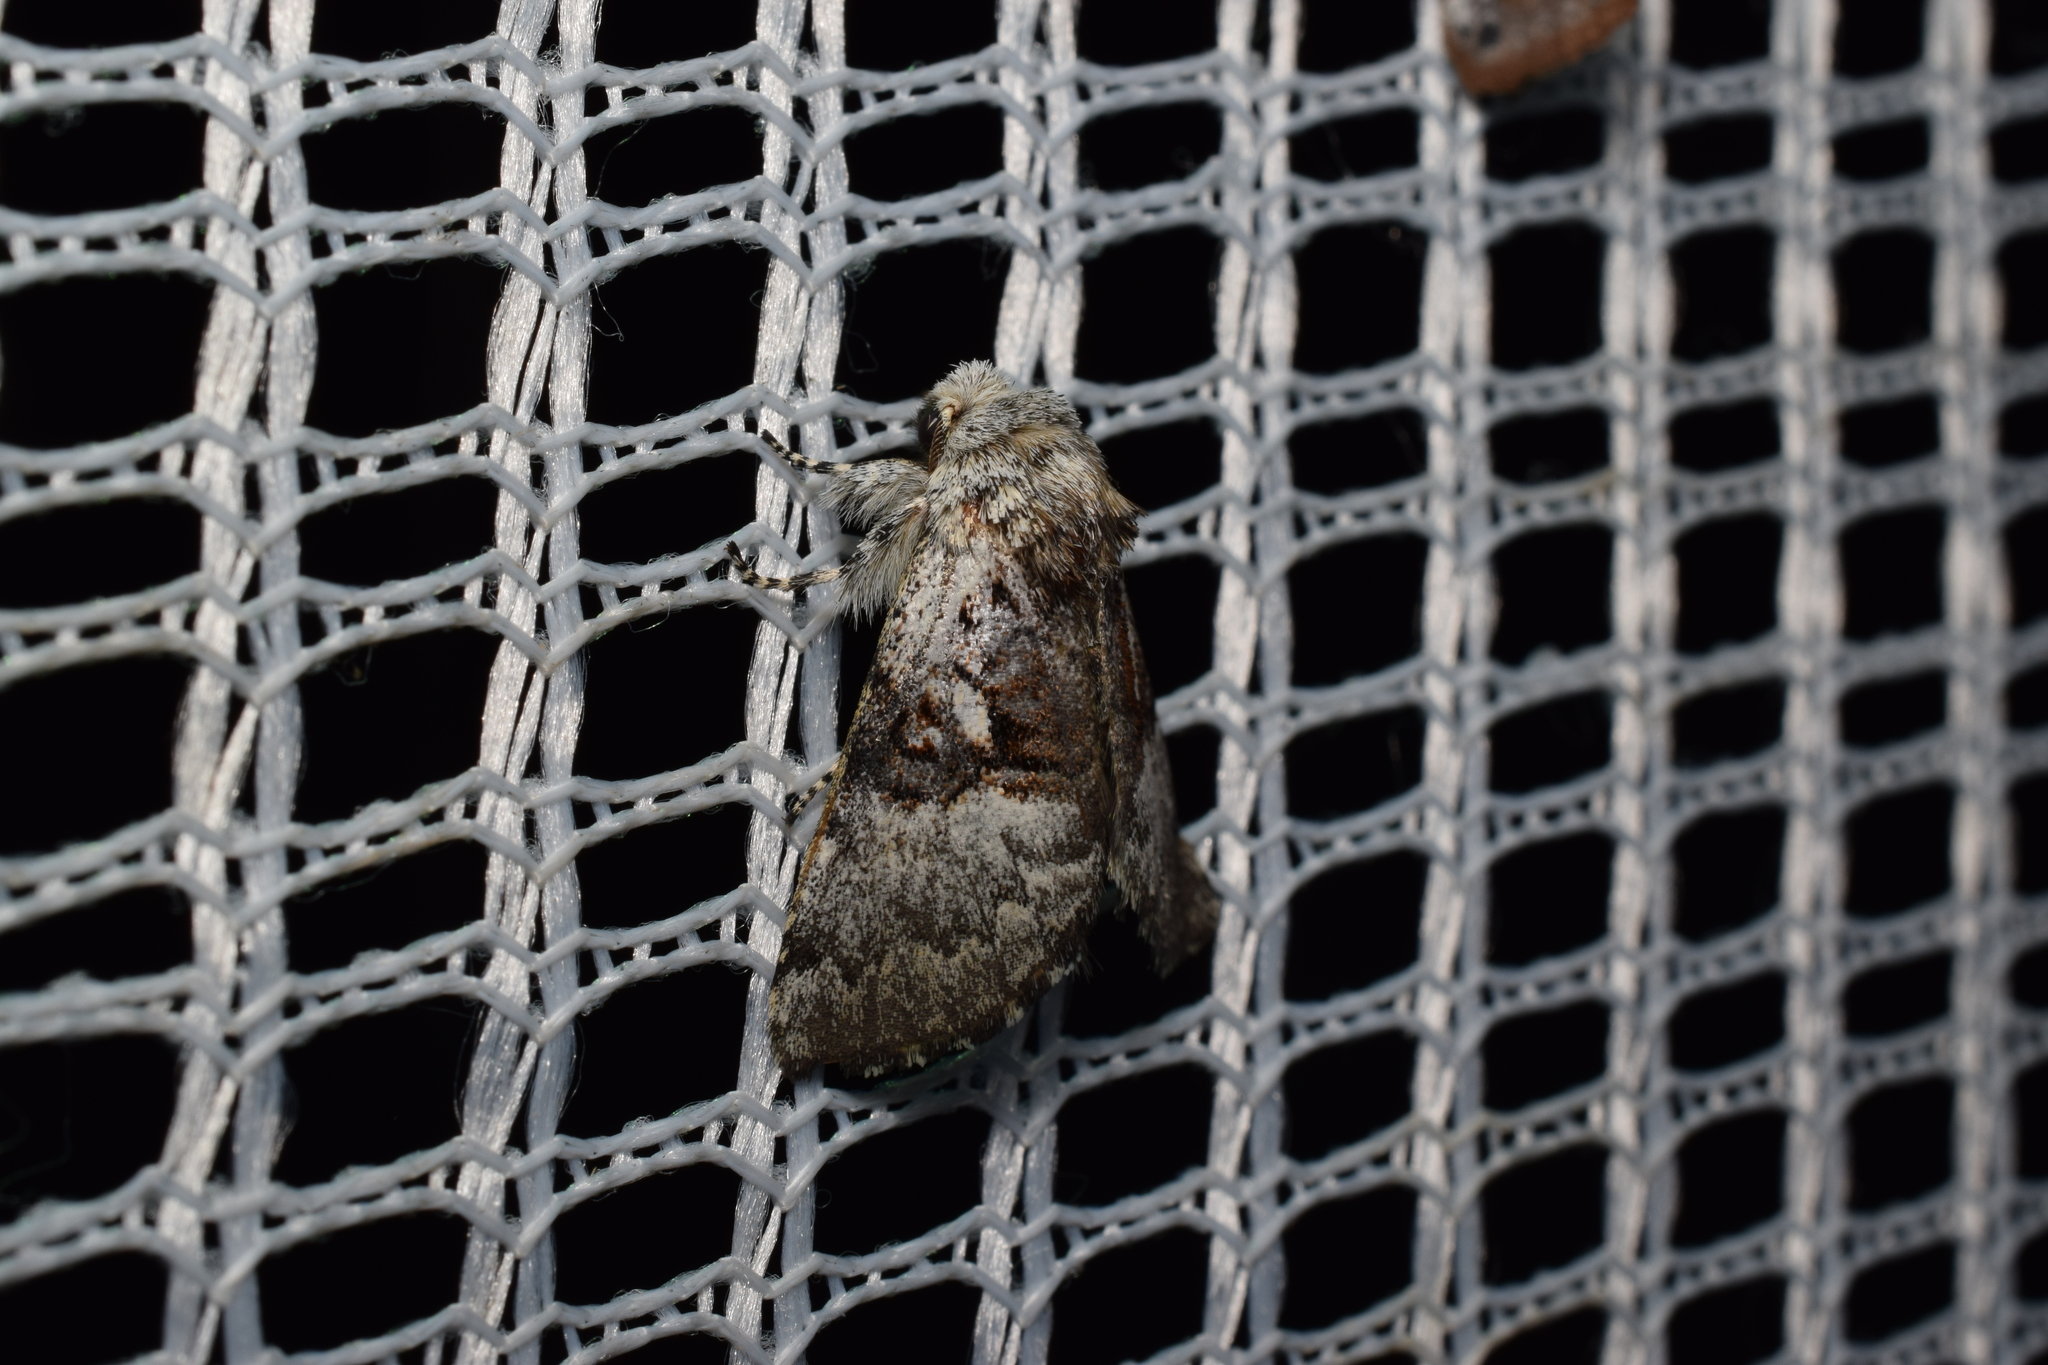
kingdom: Animalia
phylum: Arthropoda
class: Insecta
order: Lepidoptera
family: Noctuidae
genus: Colocasia
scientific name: Colocasia mus
